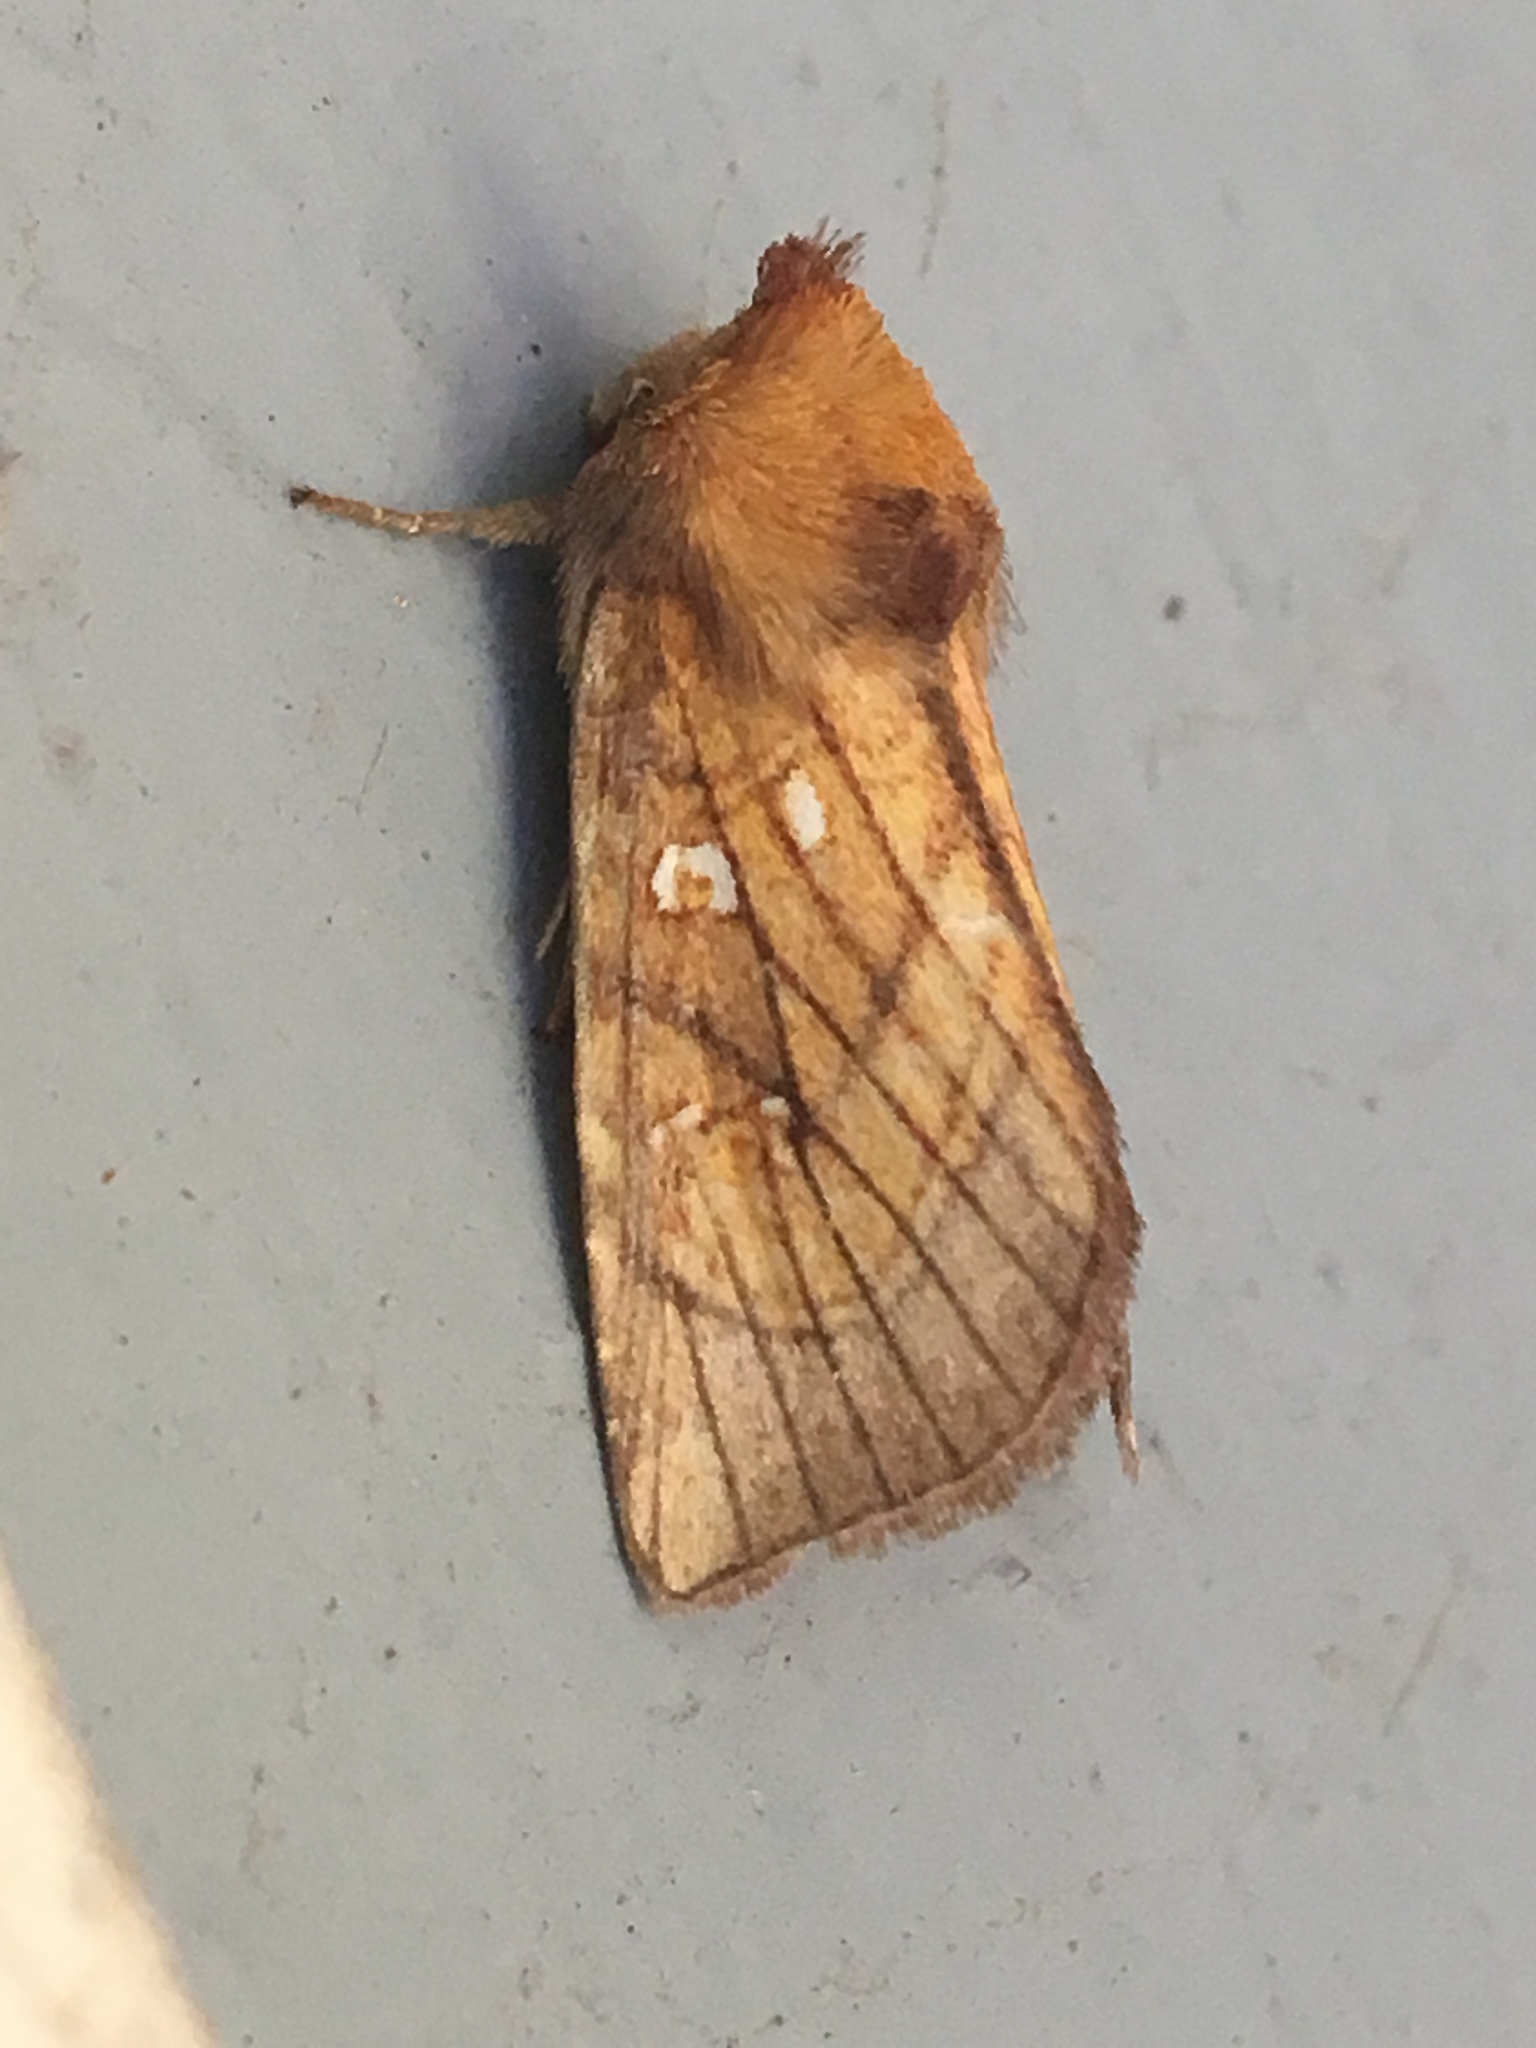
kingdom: Animalia
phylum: Arthropoda
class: Insecta
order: Lepidoptera
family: Noctuidae
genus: Papaipema
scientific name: Papaipema inquaesita
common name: Sensitive fern borer moth
